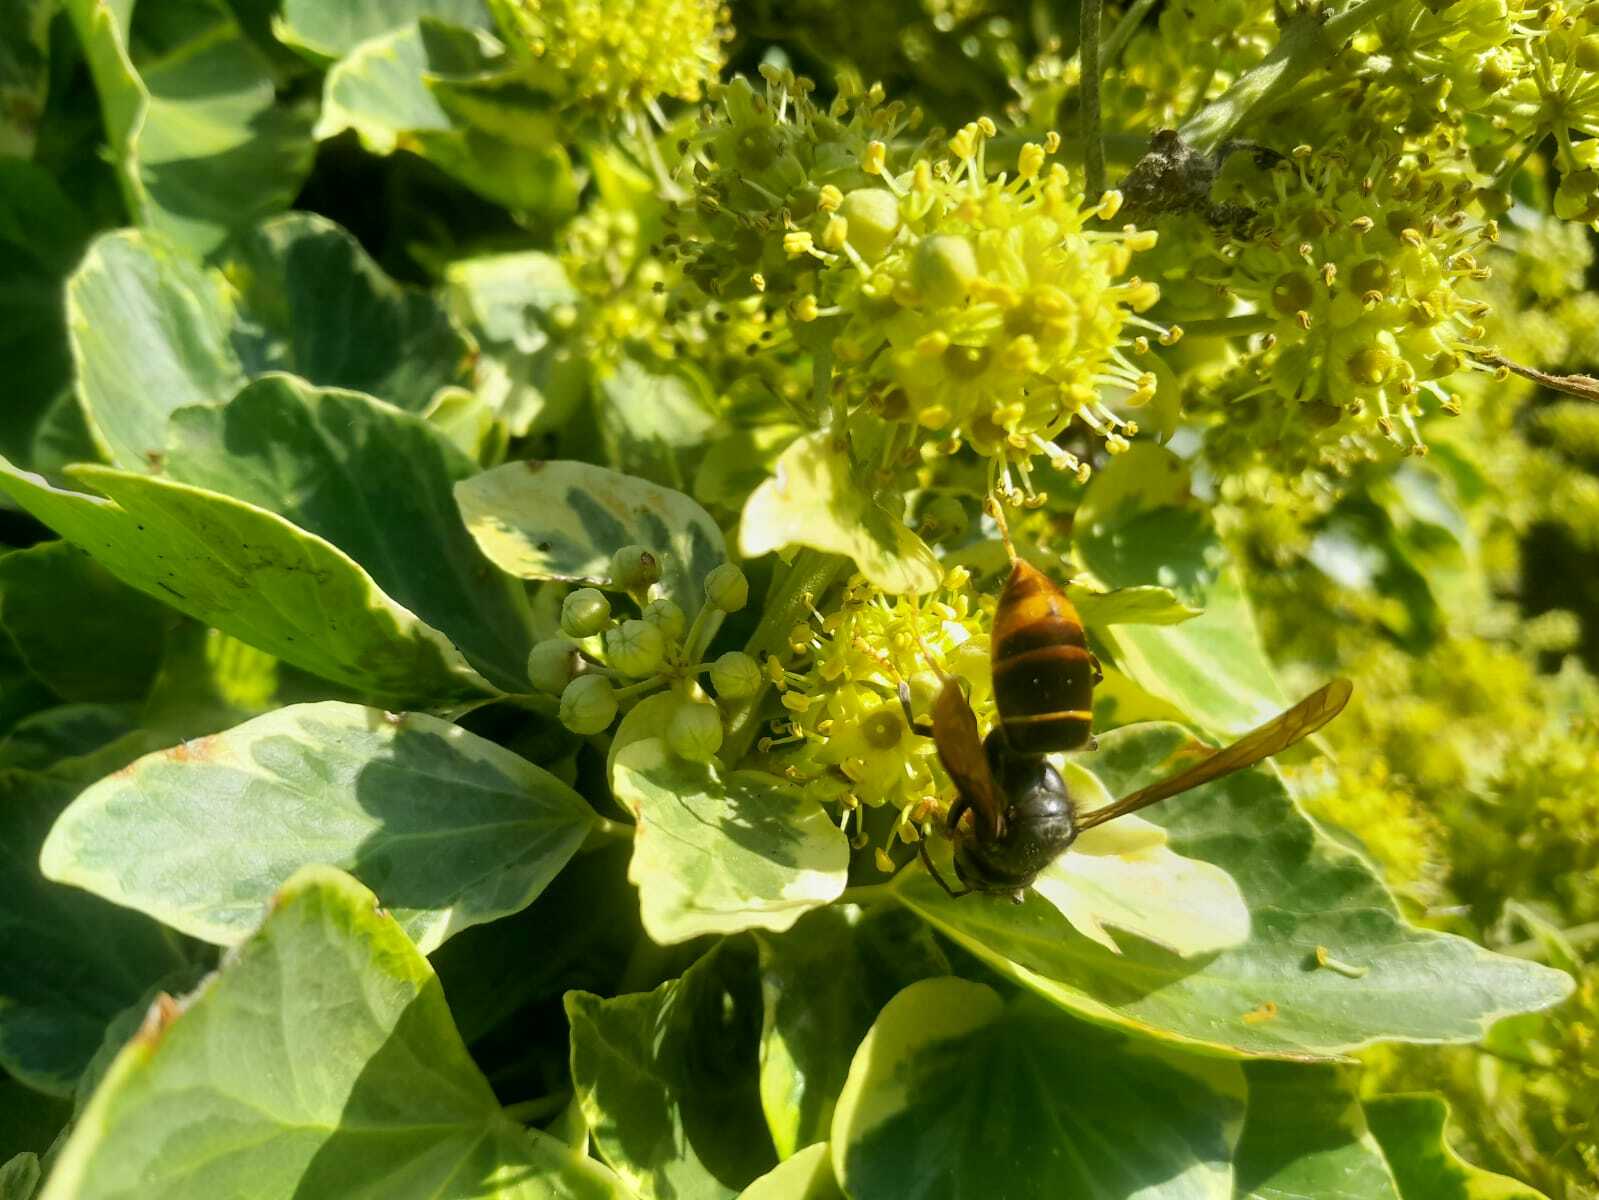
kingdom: Animalia
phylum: Arthropoda
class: Insecta
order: Hymenoptera
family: Vespidae
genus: Vespa
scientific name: Vespa velutina
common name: Asian hornet
